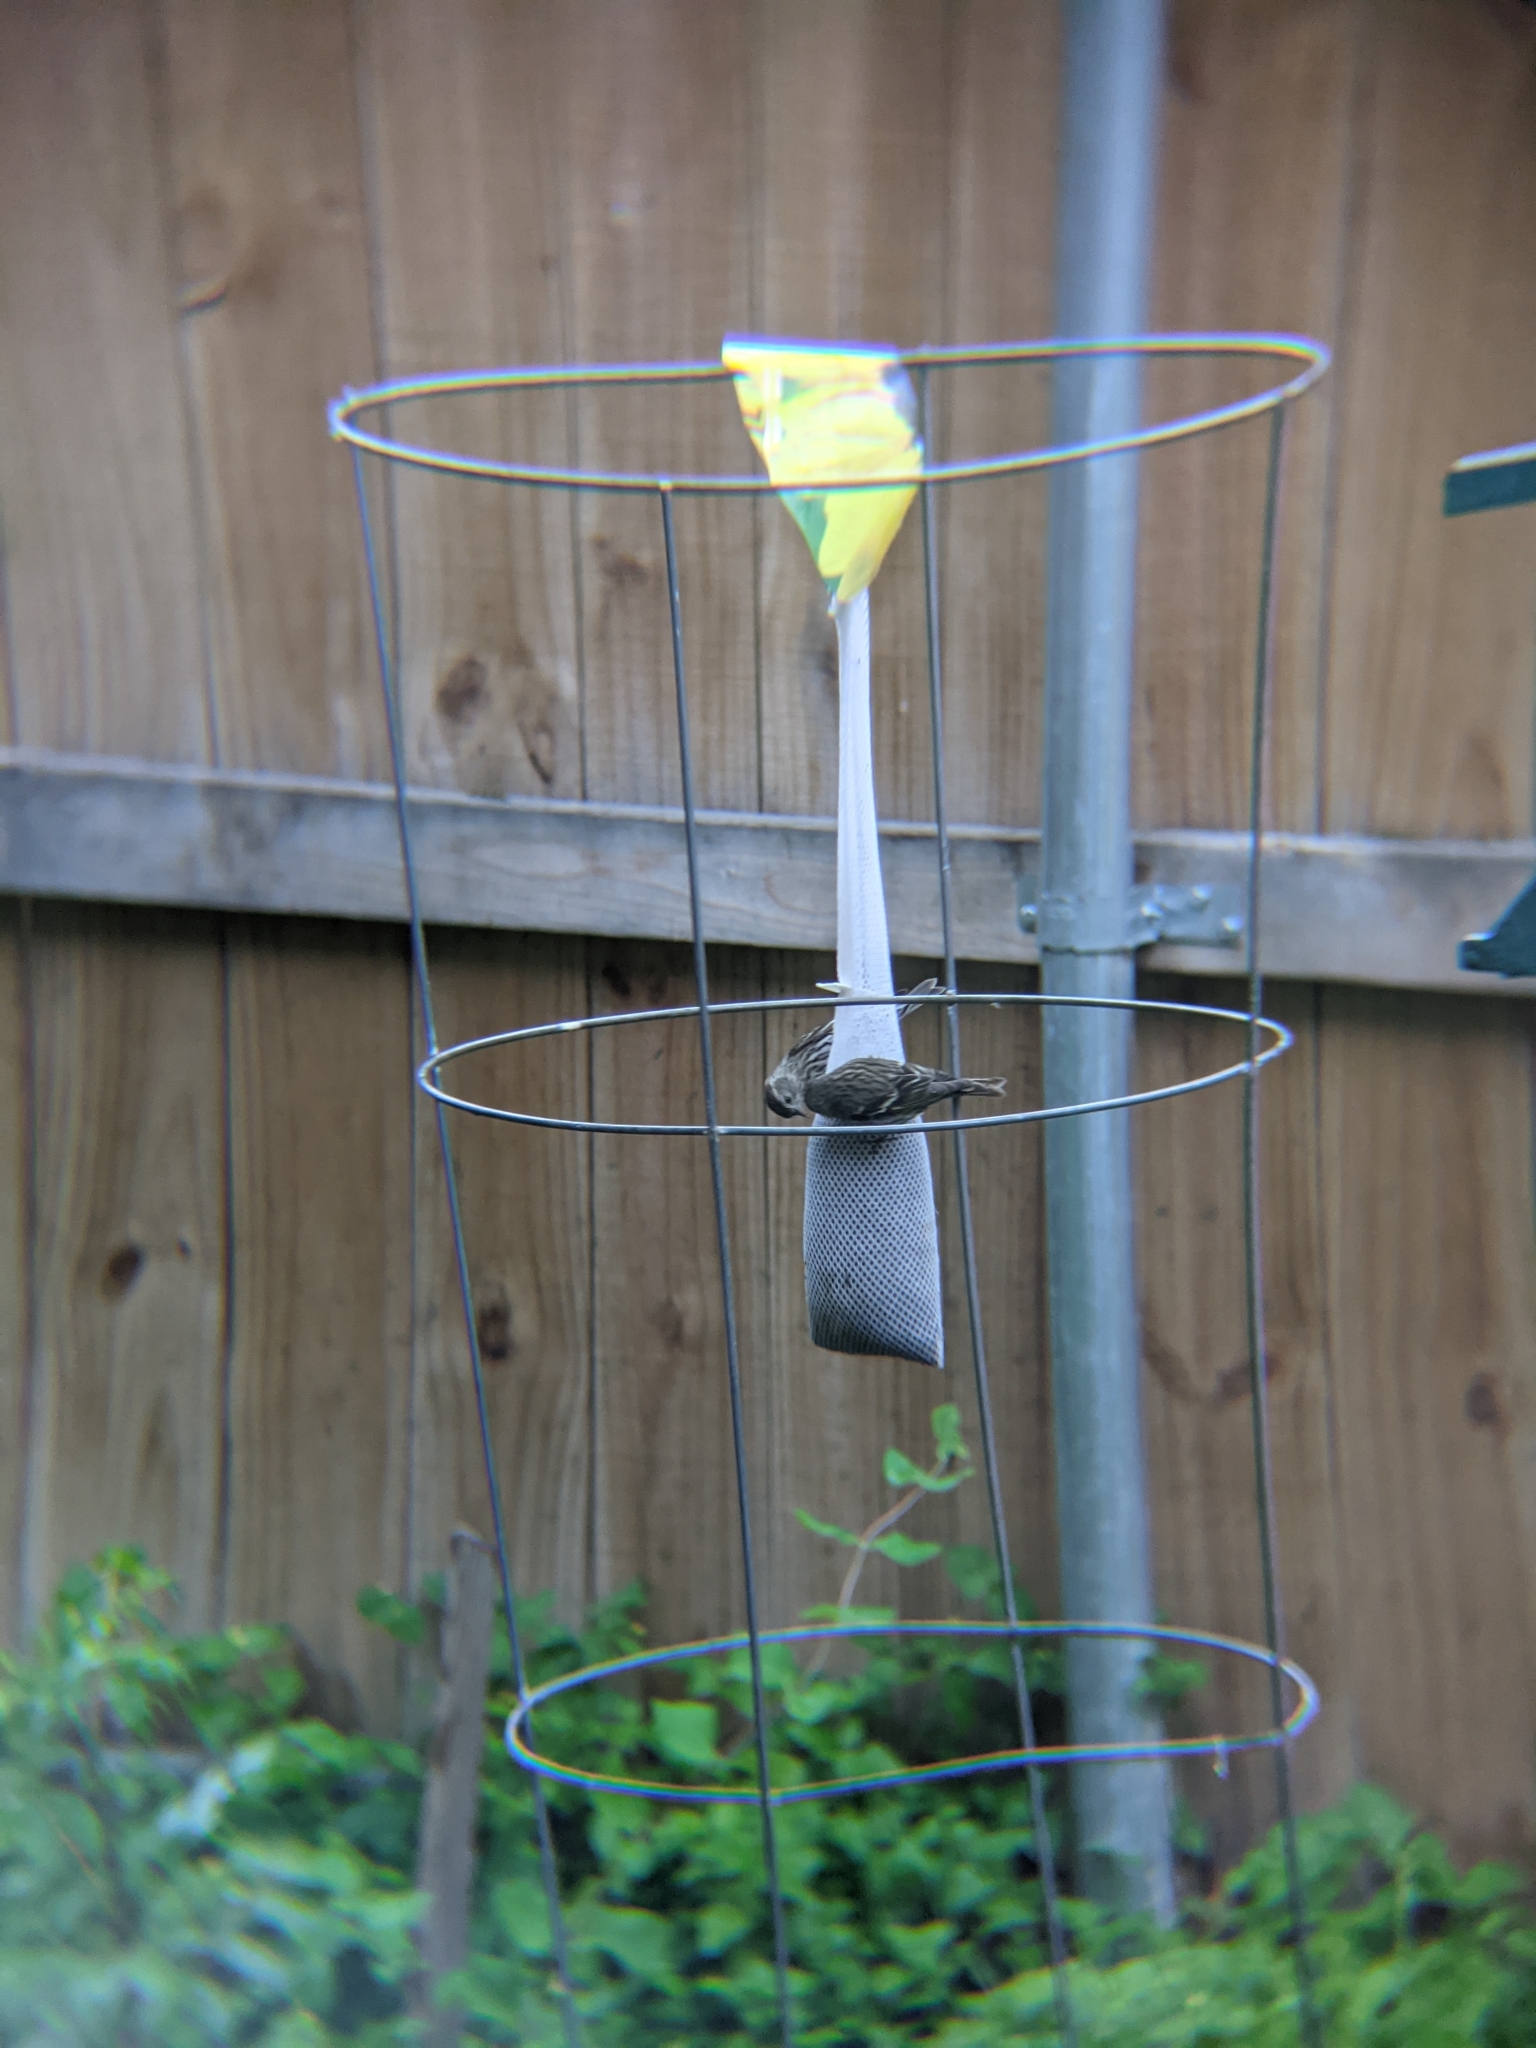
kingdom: Animalia
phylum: Chordata
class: Aves
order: Passeriformes
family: Fringillidae
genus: Spinus
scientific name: Spinus pinus
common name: Pine siskin
